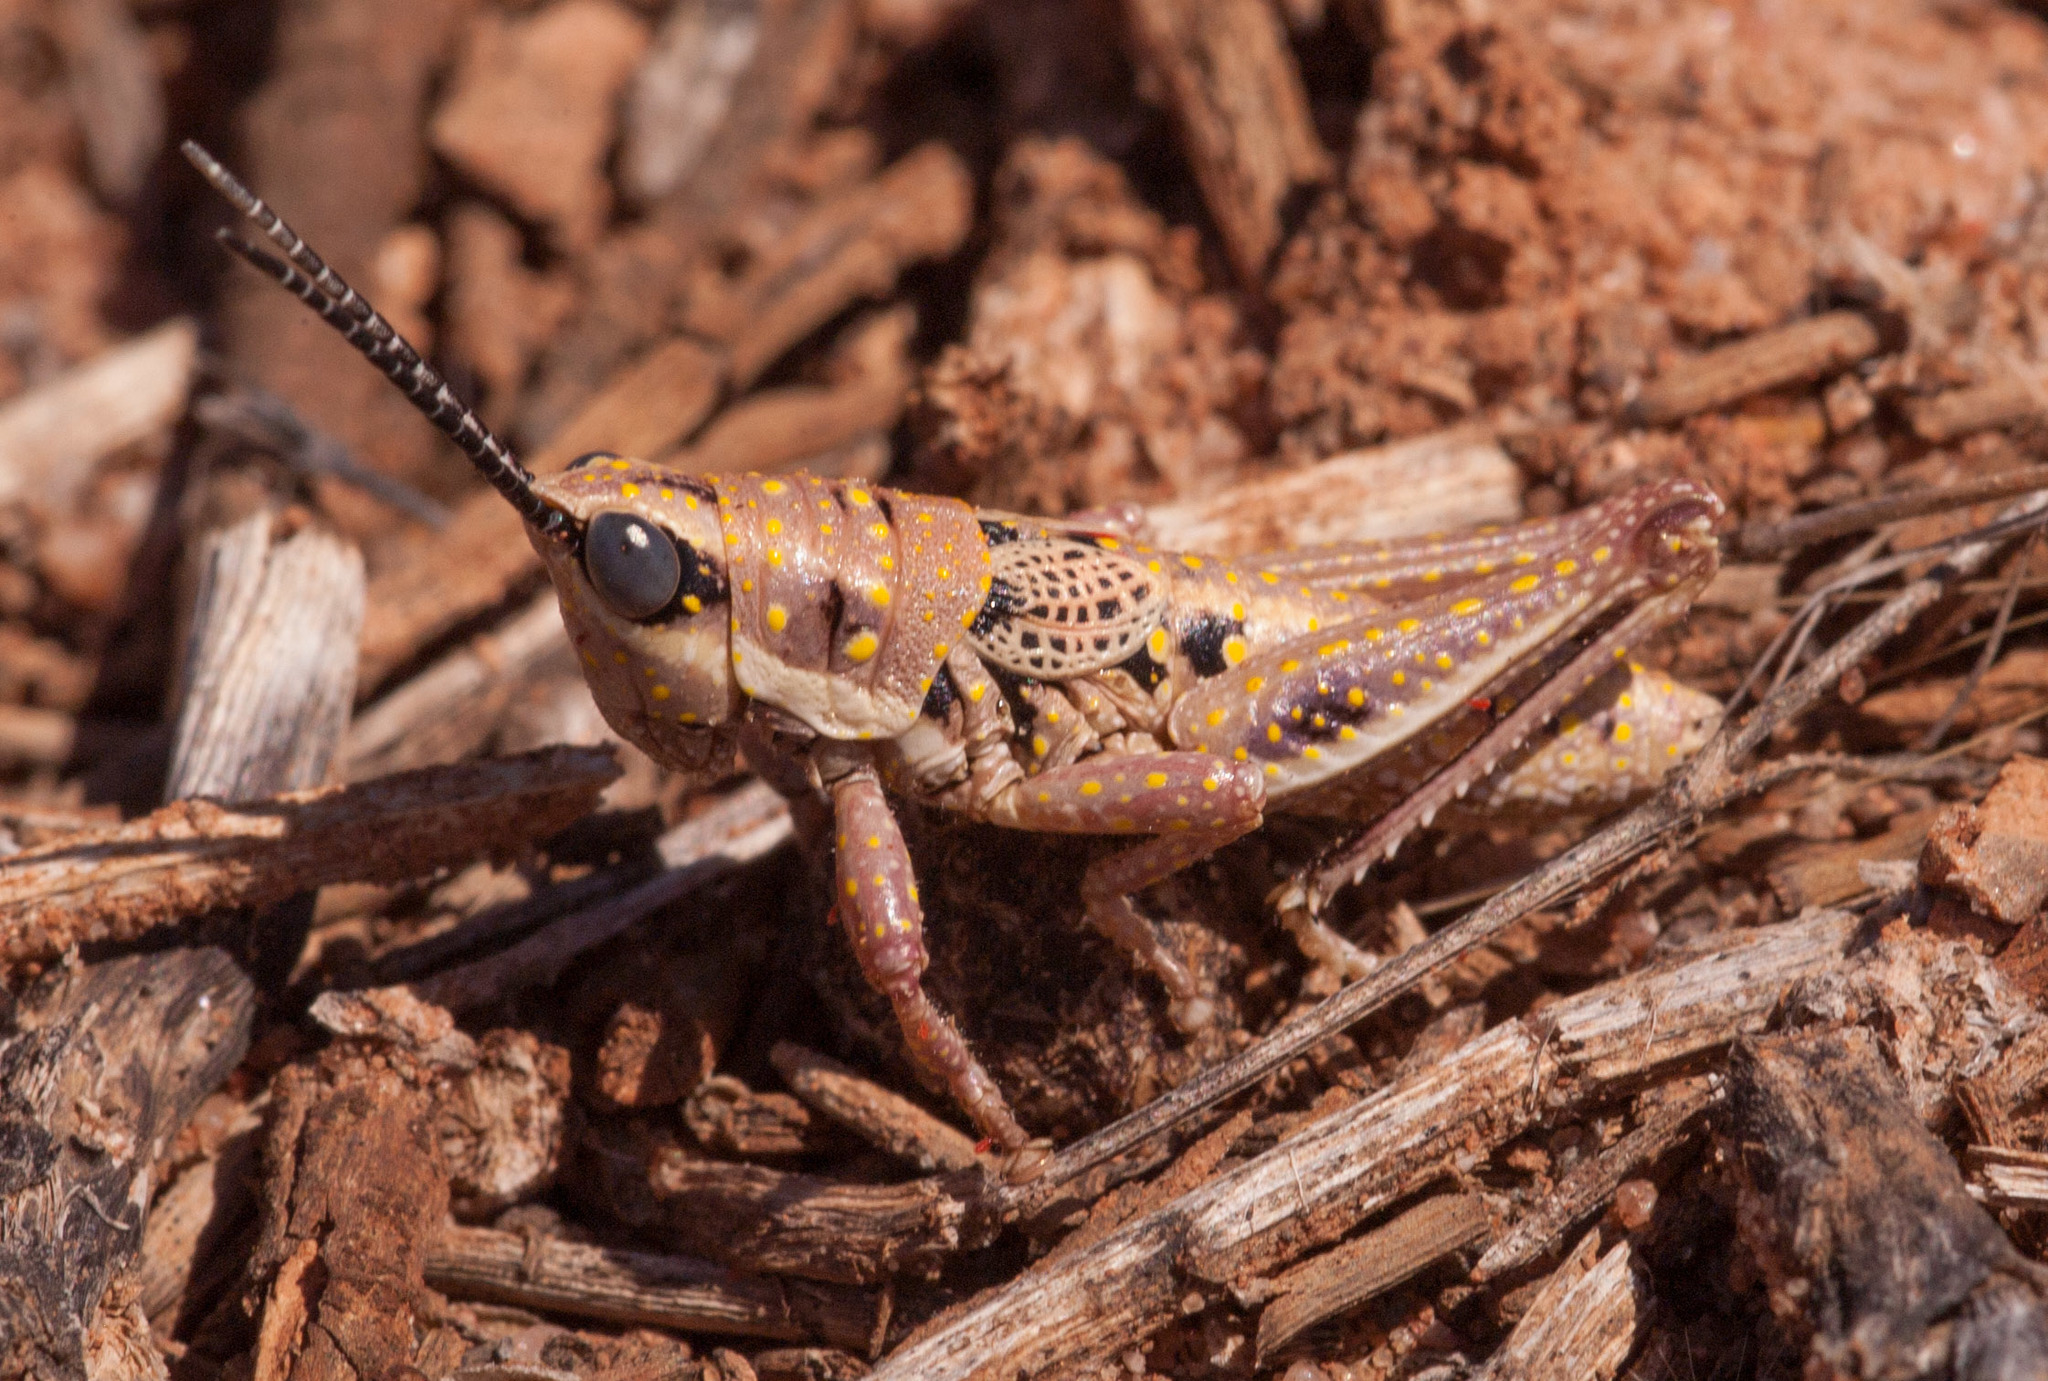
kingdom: Animalia
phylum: Arthropoda
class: Insecta
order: Orthoptera
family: Pyrgomorphidae
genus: Monistria
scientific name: Monistria discrepans
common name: Common pyrgomorph
